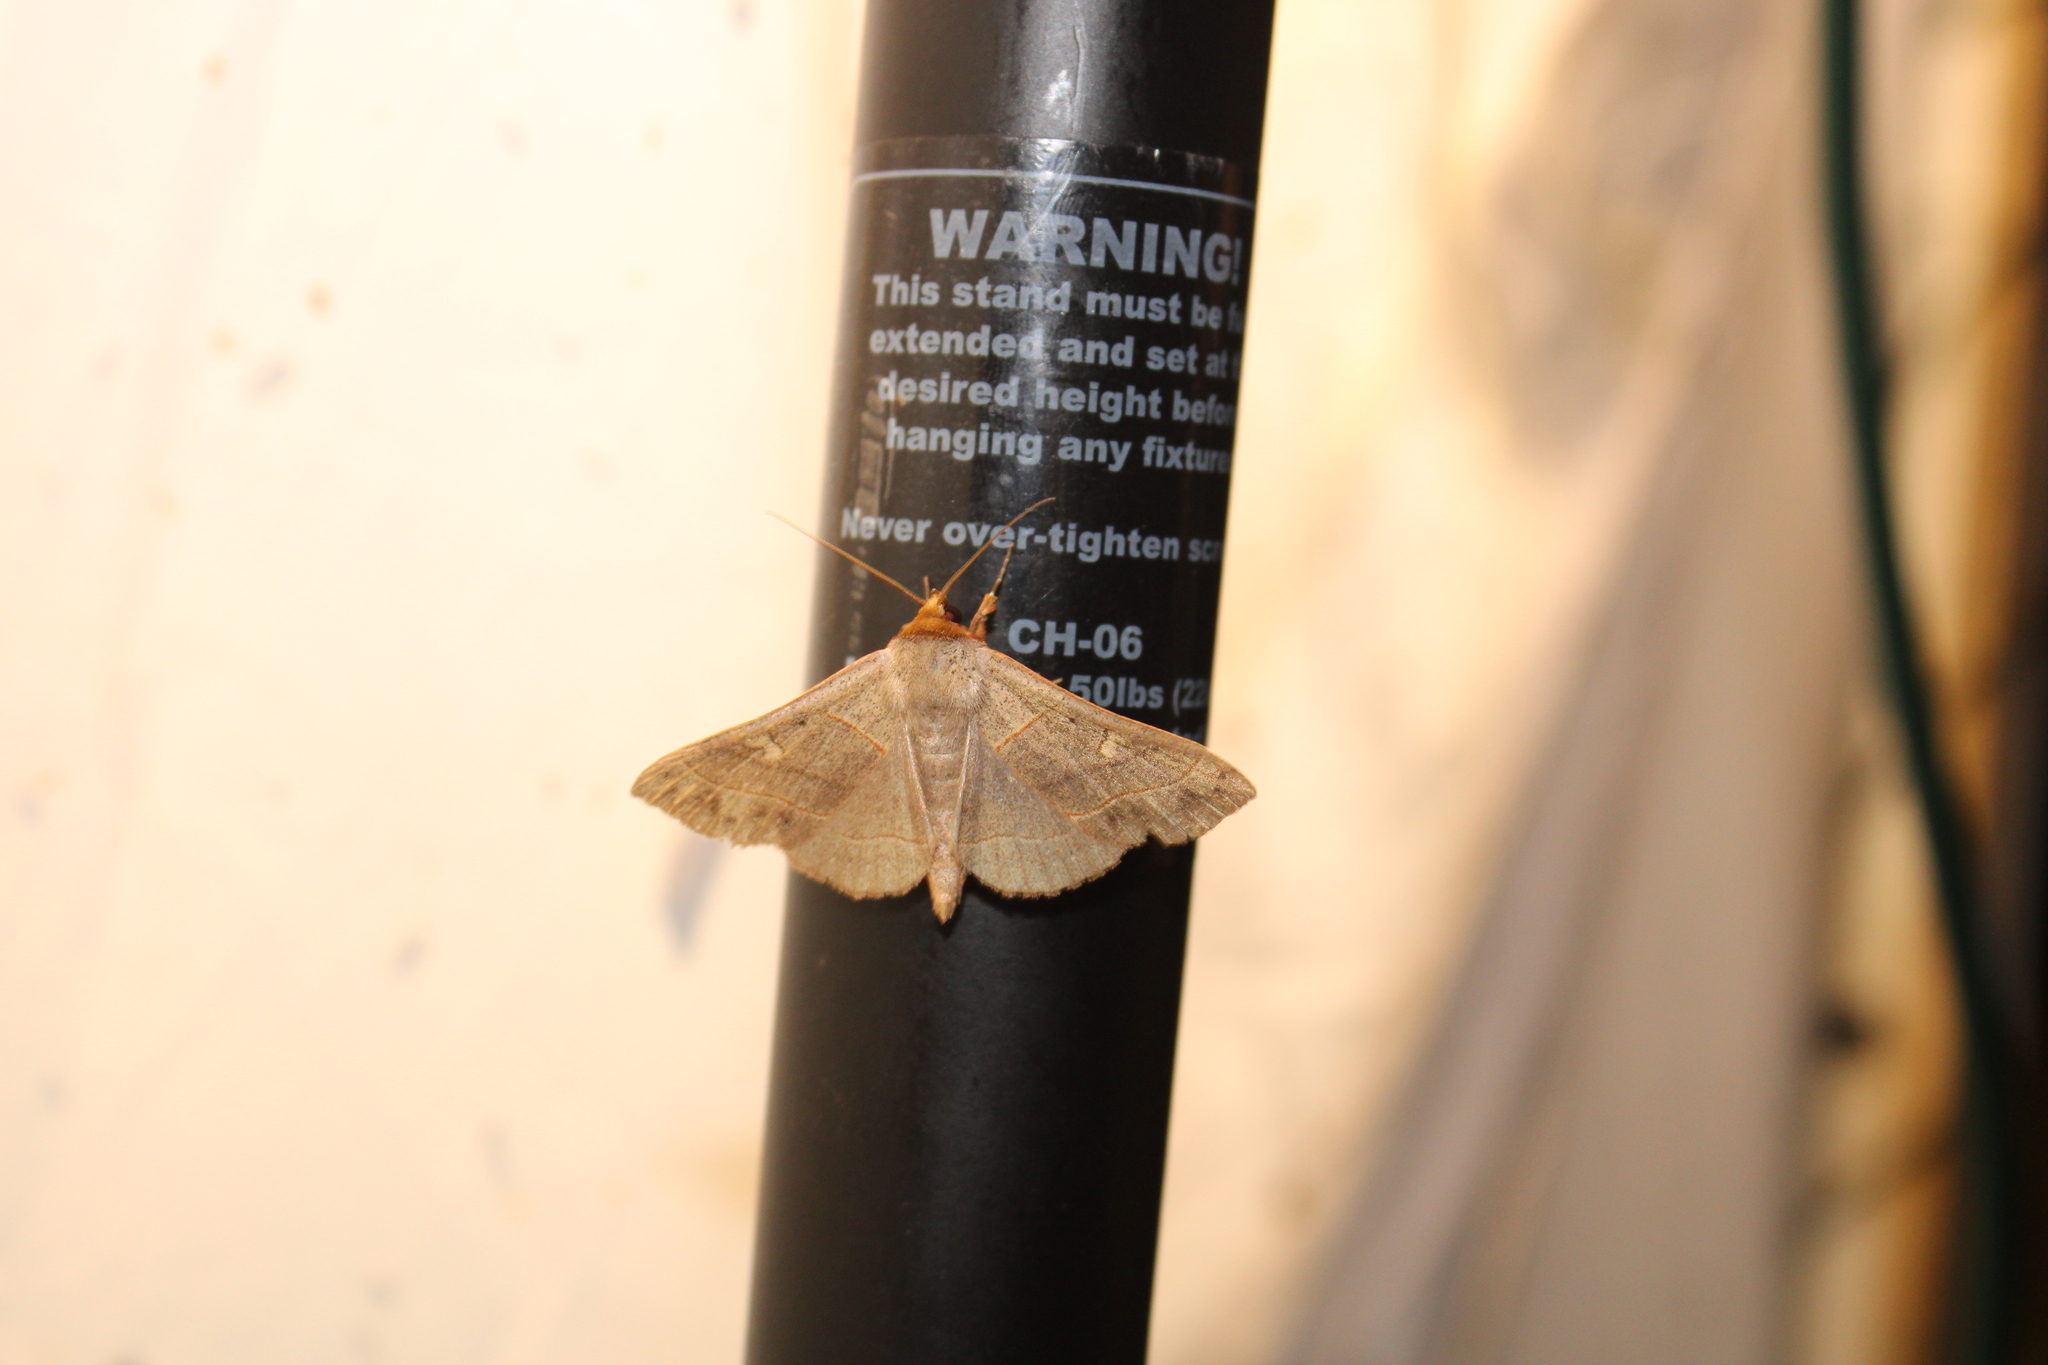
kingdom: Animalia
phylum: Arthropoda
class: Insecta
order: Lepidoptera
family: Erebidae
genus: Panopoda
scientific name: Panopoda rufimargo
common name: Red-lined panopoda moth
